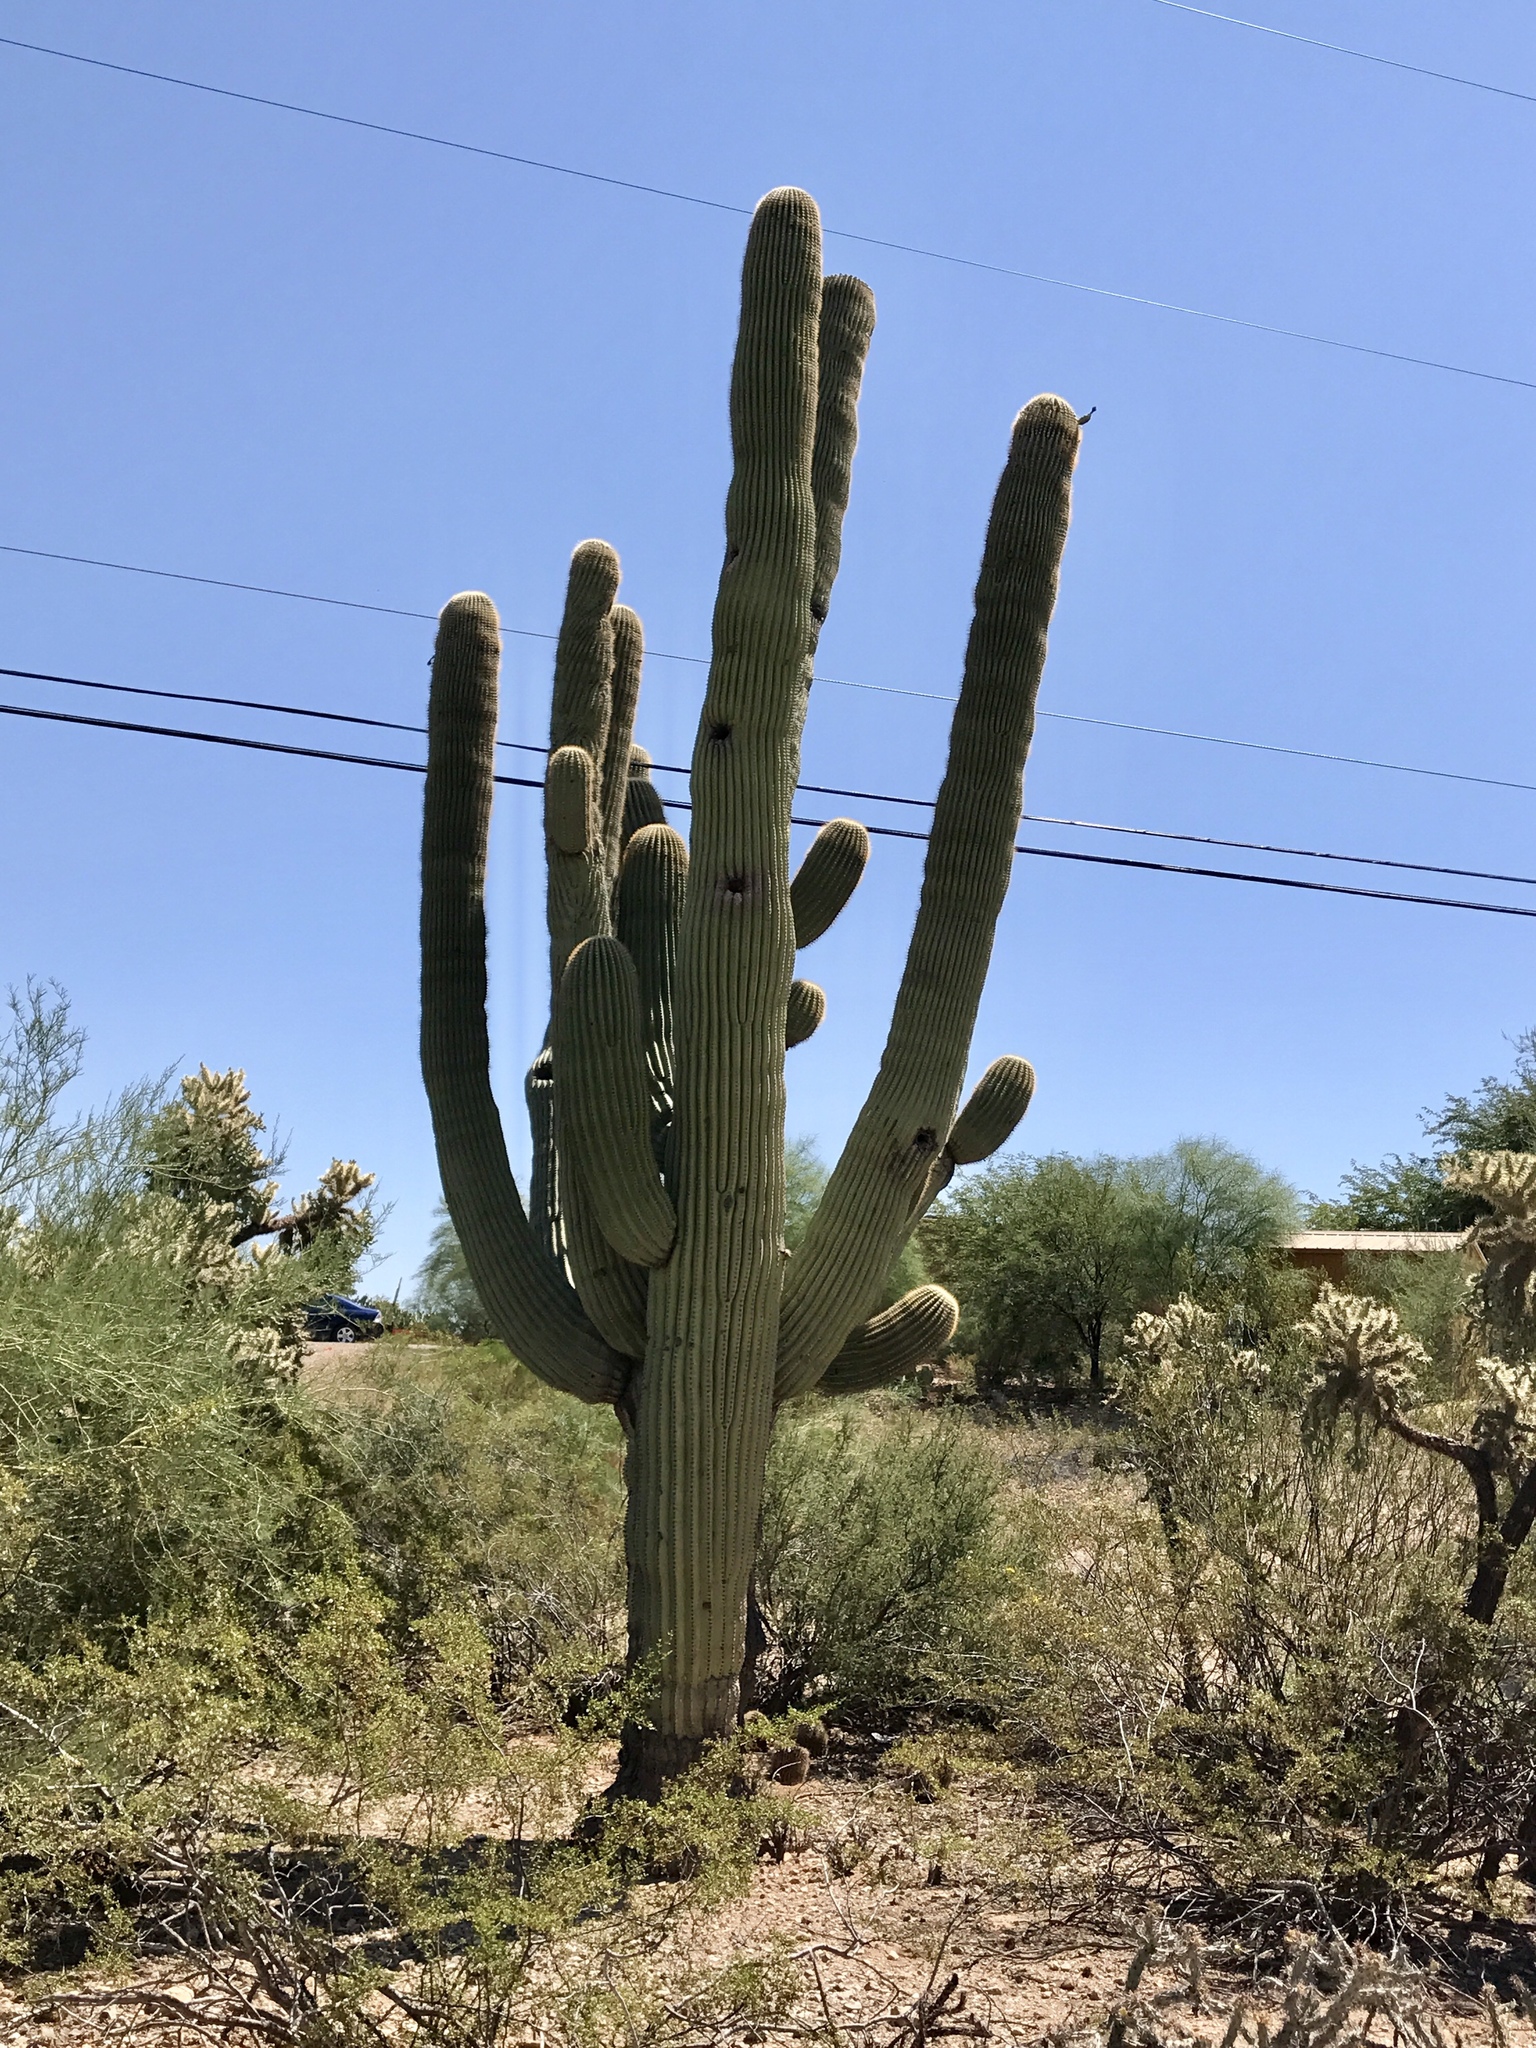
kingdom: Plantae
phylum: Tracheophyta
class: Magnoliopsida
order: Caryophyllales
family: Cactaceae
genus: Carnegiea
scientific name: Carnegiea gigantea
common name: Saguaro
